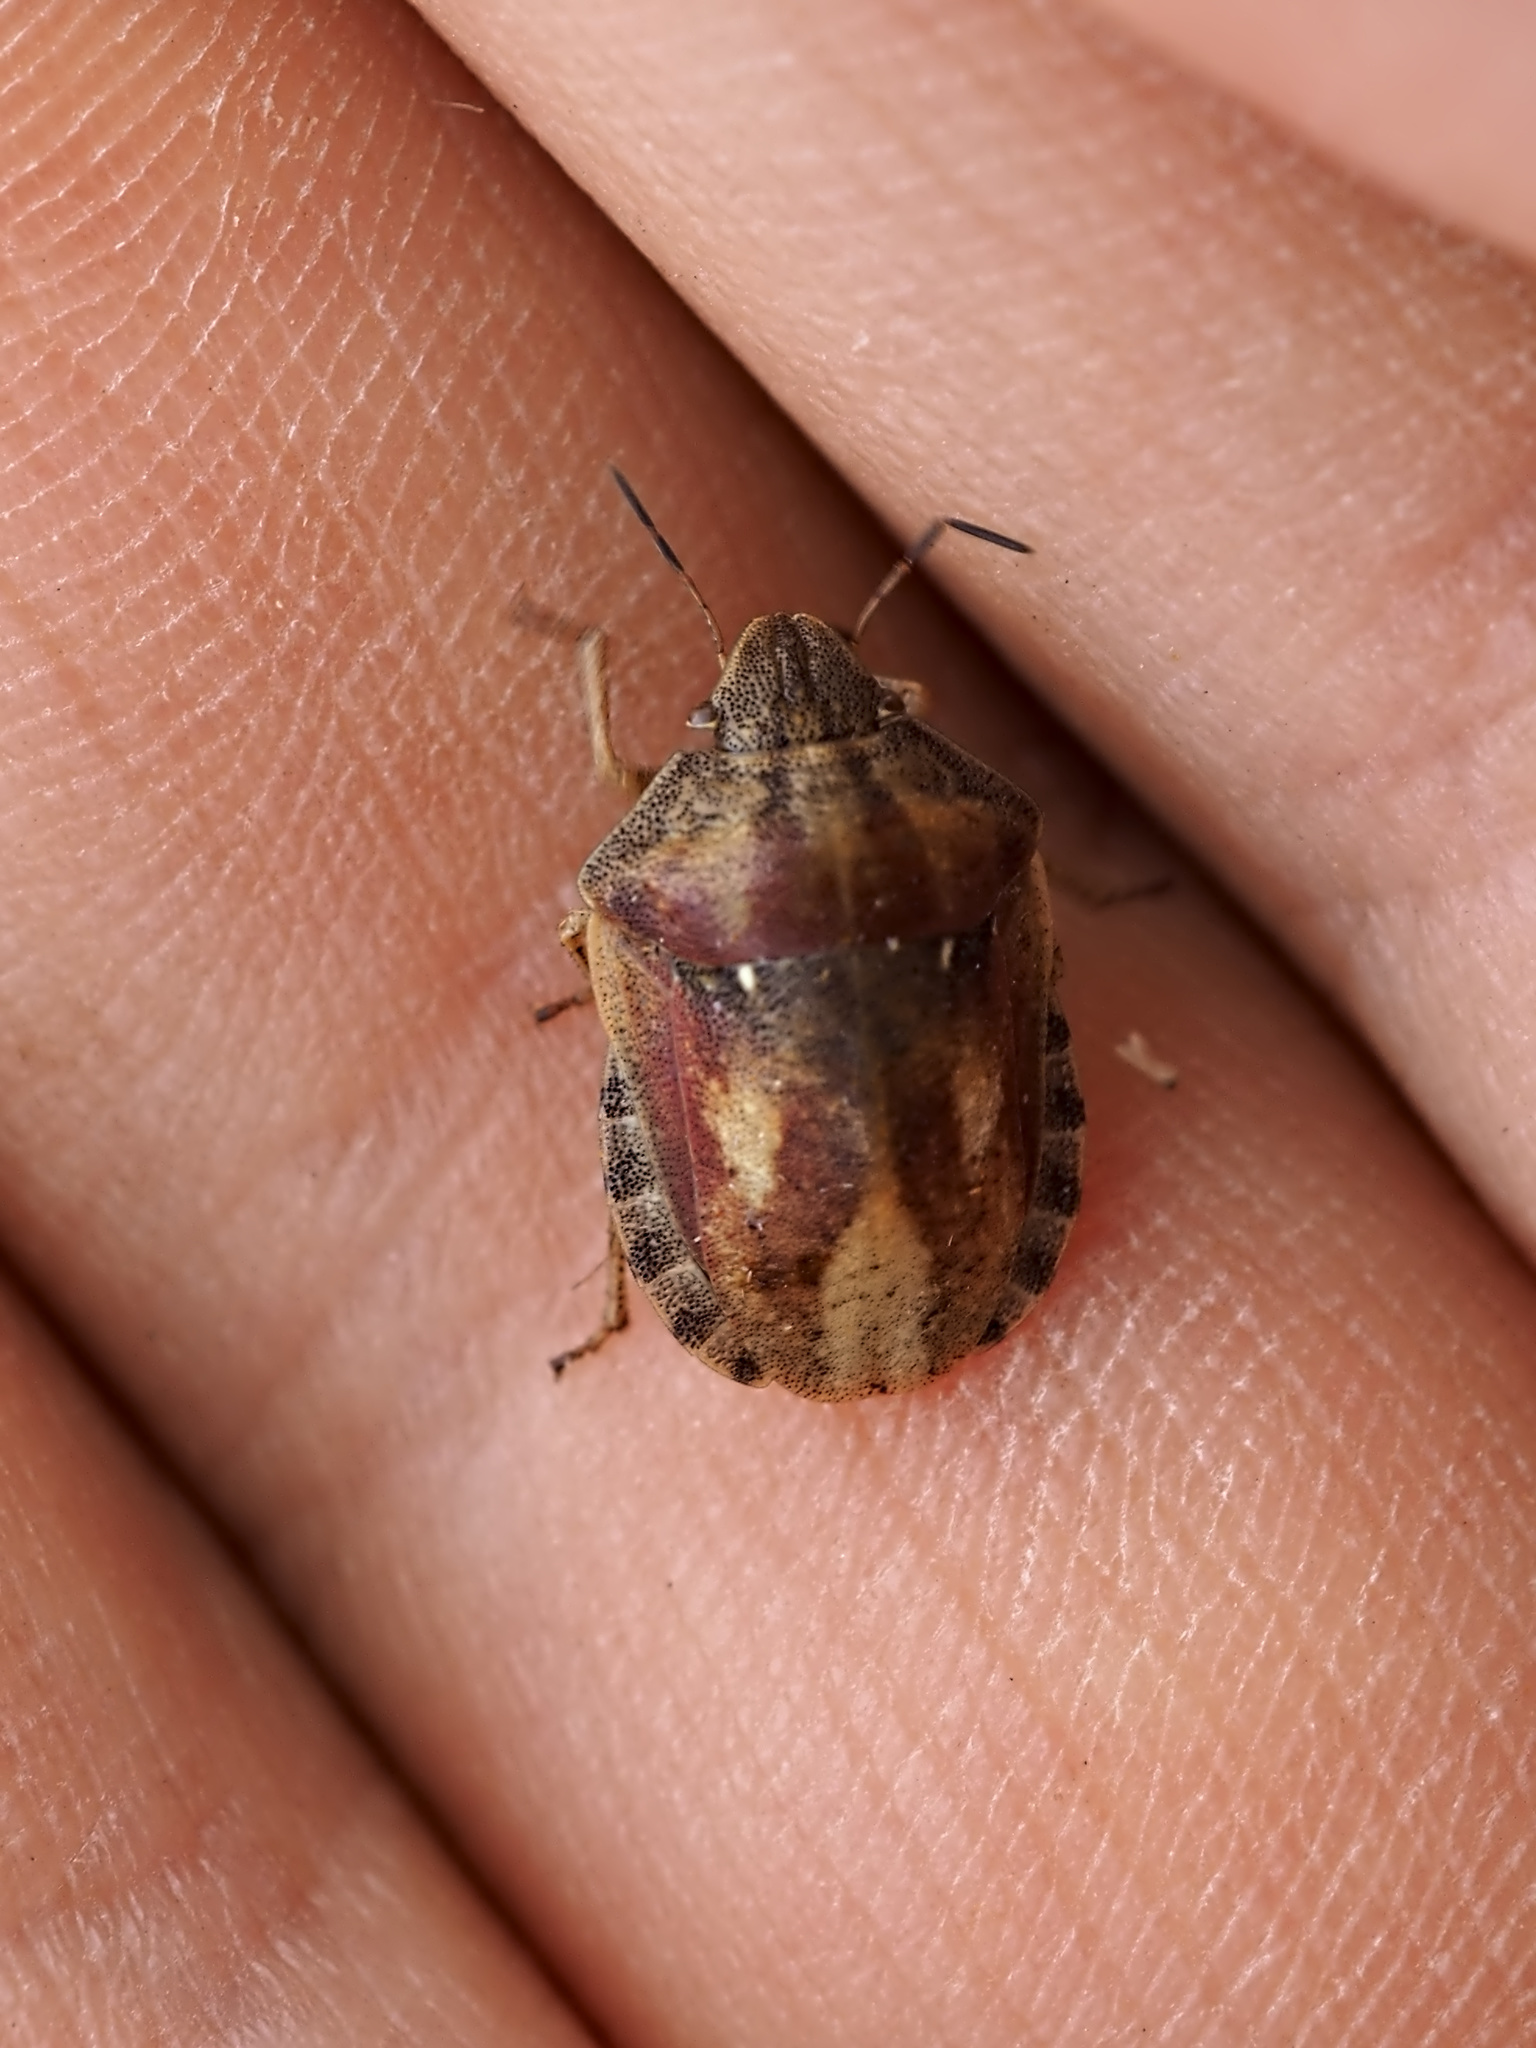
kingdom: Animalia
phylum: Arthropoda
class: Insecta
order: Hemiptera
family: Scutelleridae
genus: Eurygaster
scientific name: Eurygaster testudinaria
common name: Tortoise bug
